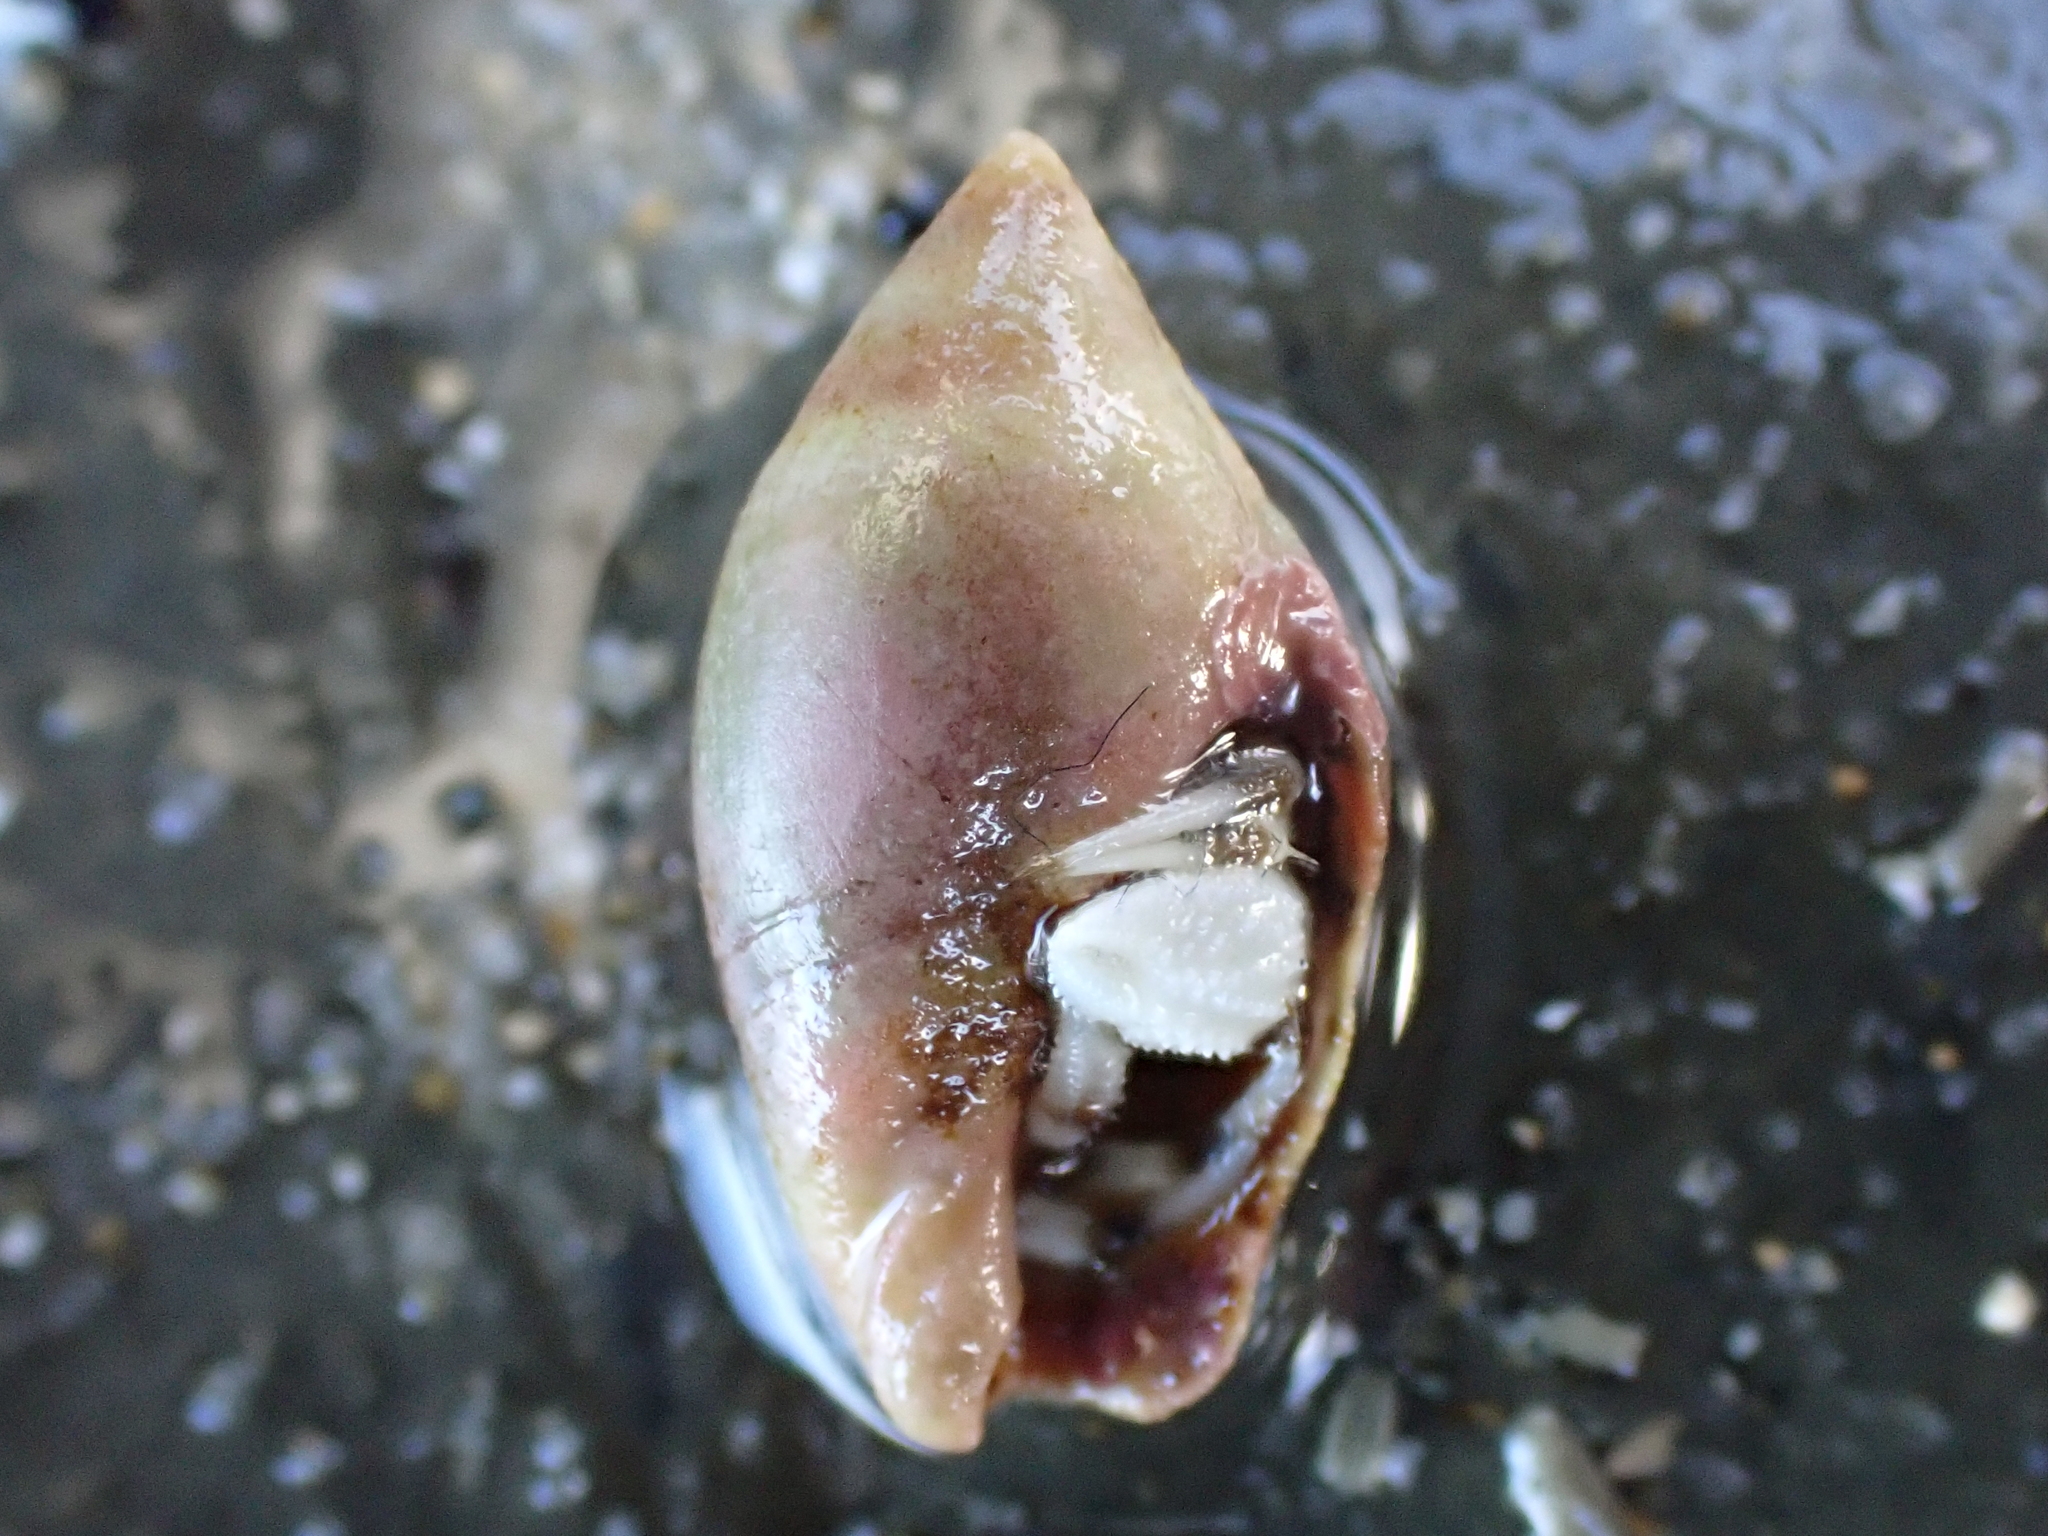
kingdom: Animalia
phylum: Mollusca
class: Gastropoda
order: Neogastropoda
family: Ancillariidae
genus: Amalda
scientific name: Amalda depressa
